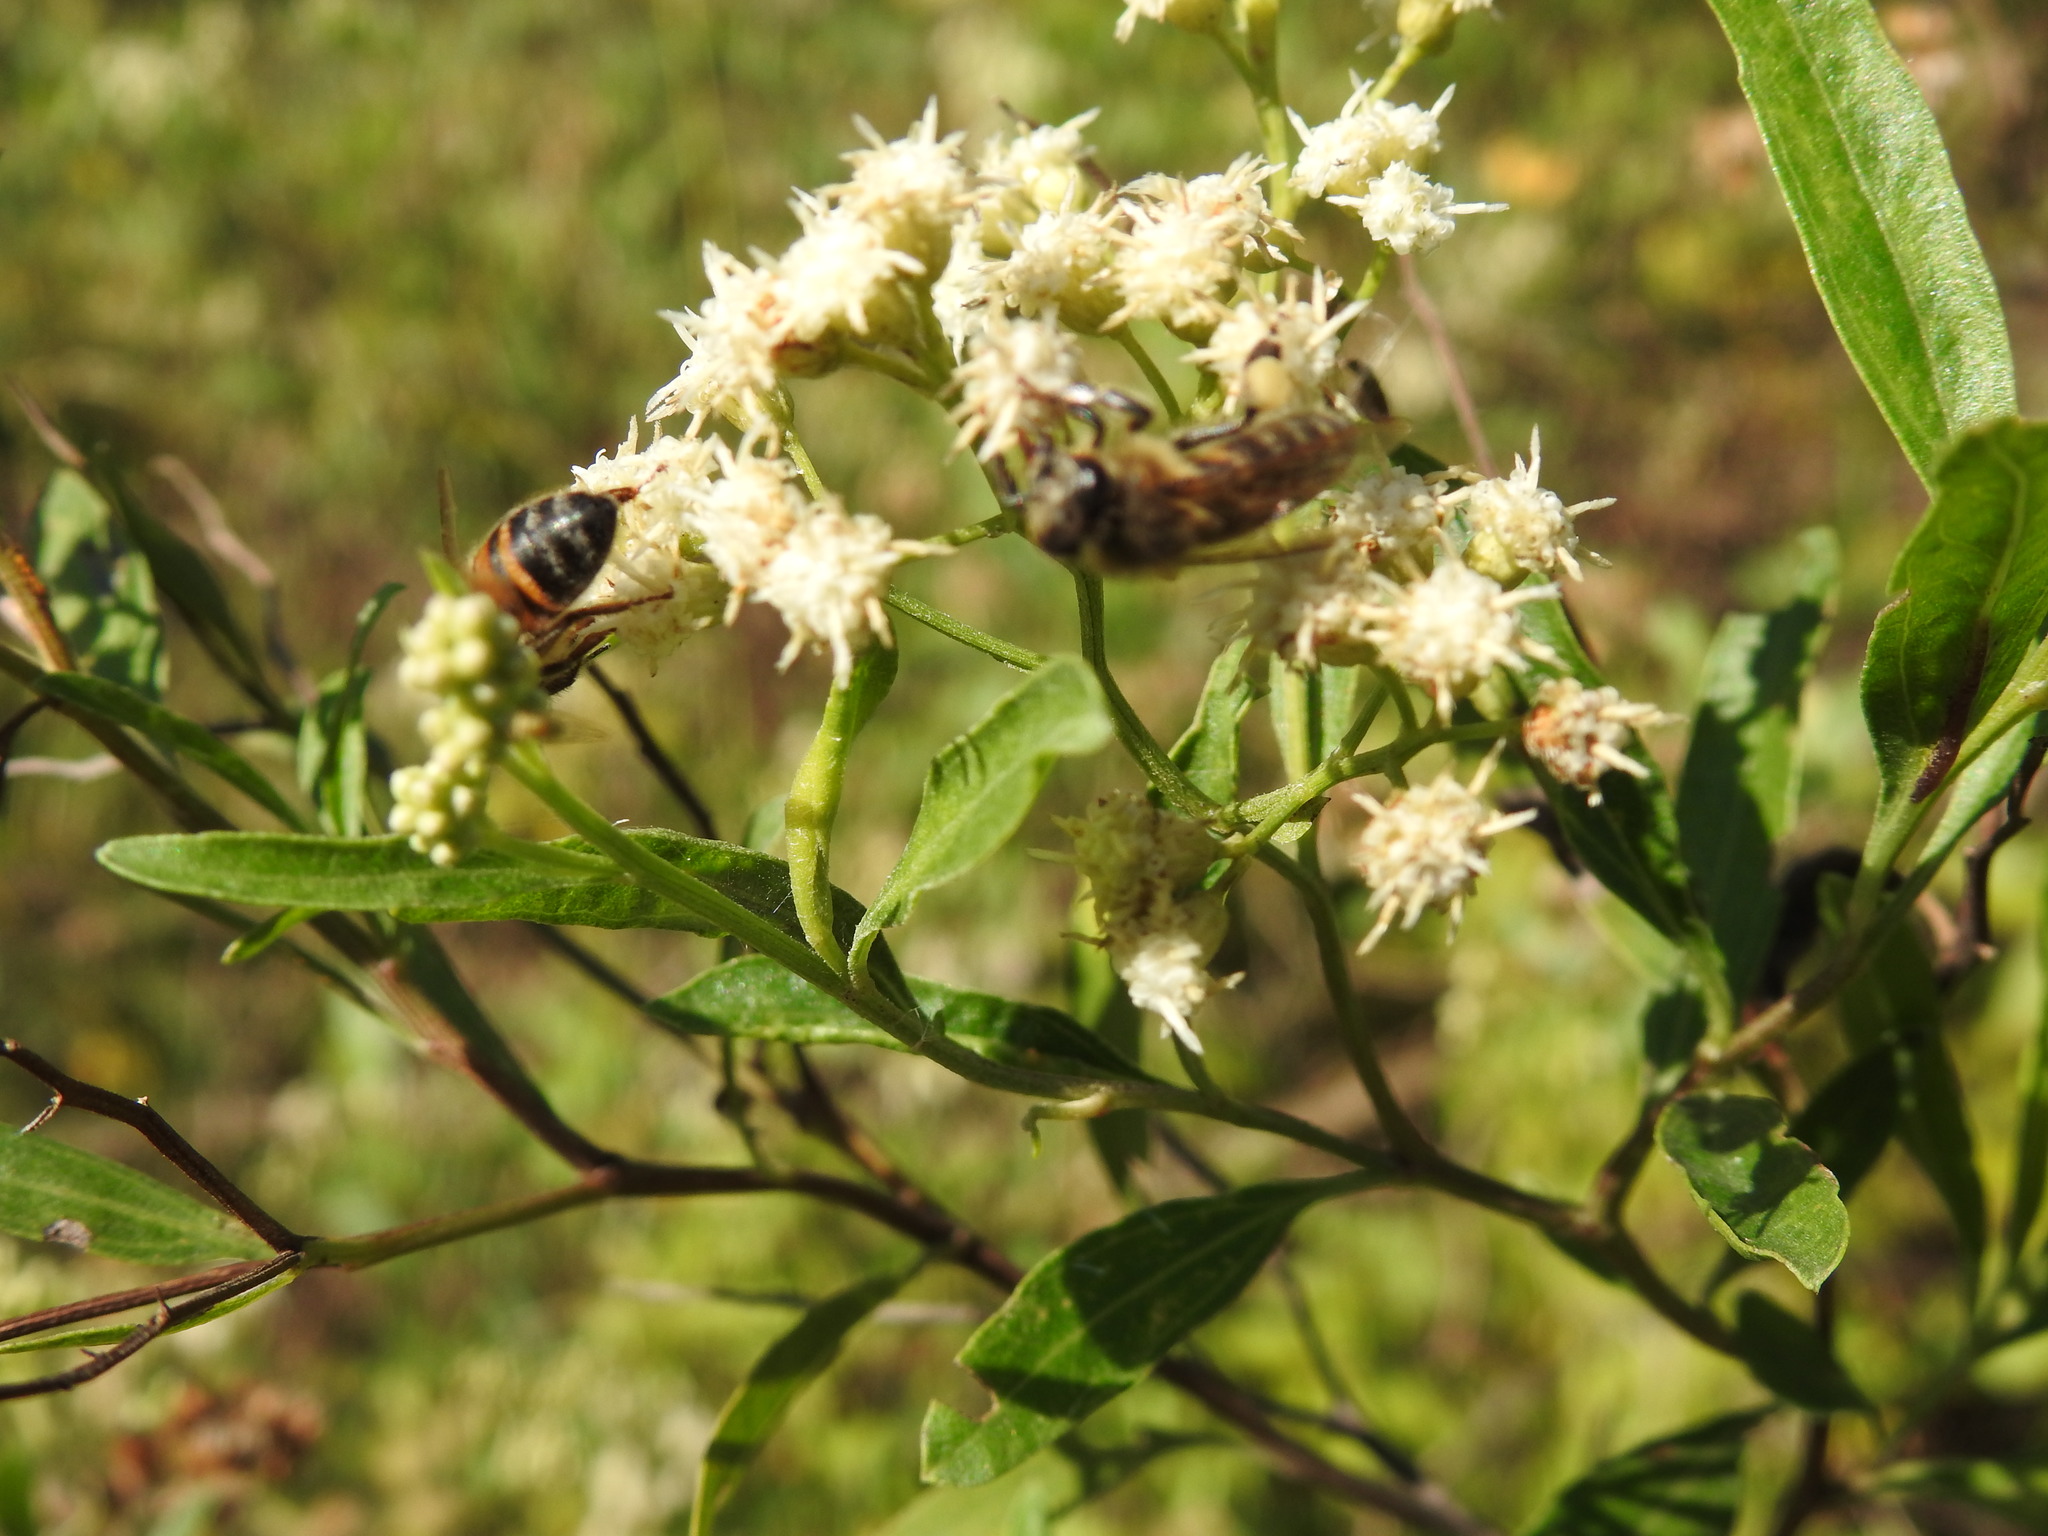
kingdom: Animalia
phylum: Arthropoda
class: Insecta
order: Hymenoptera
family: Apidae
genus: Apis
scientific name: Apis mellifera
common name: Honey bee
